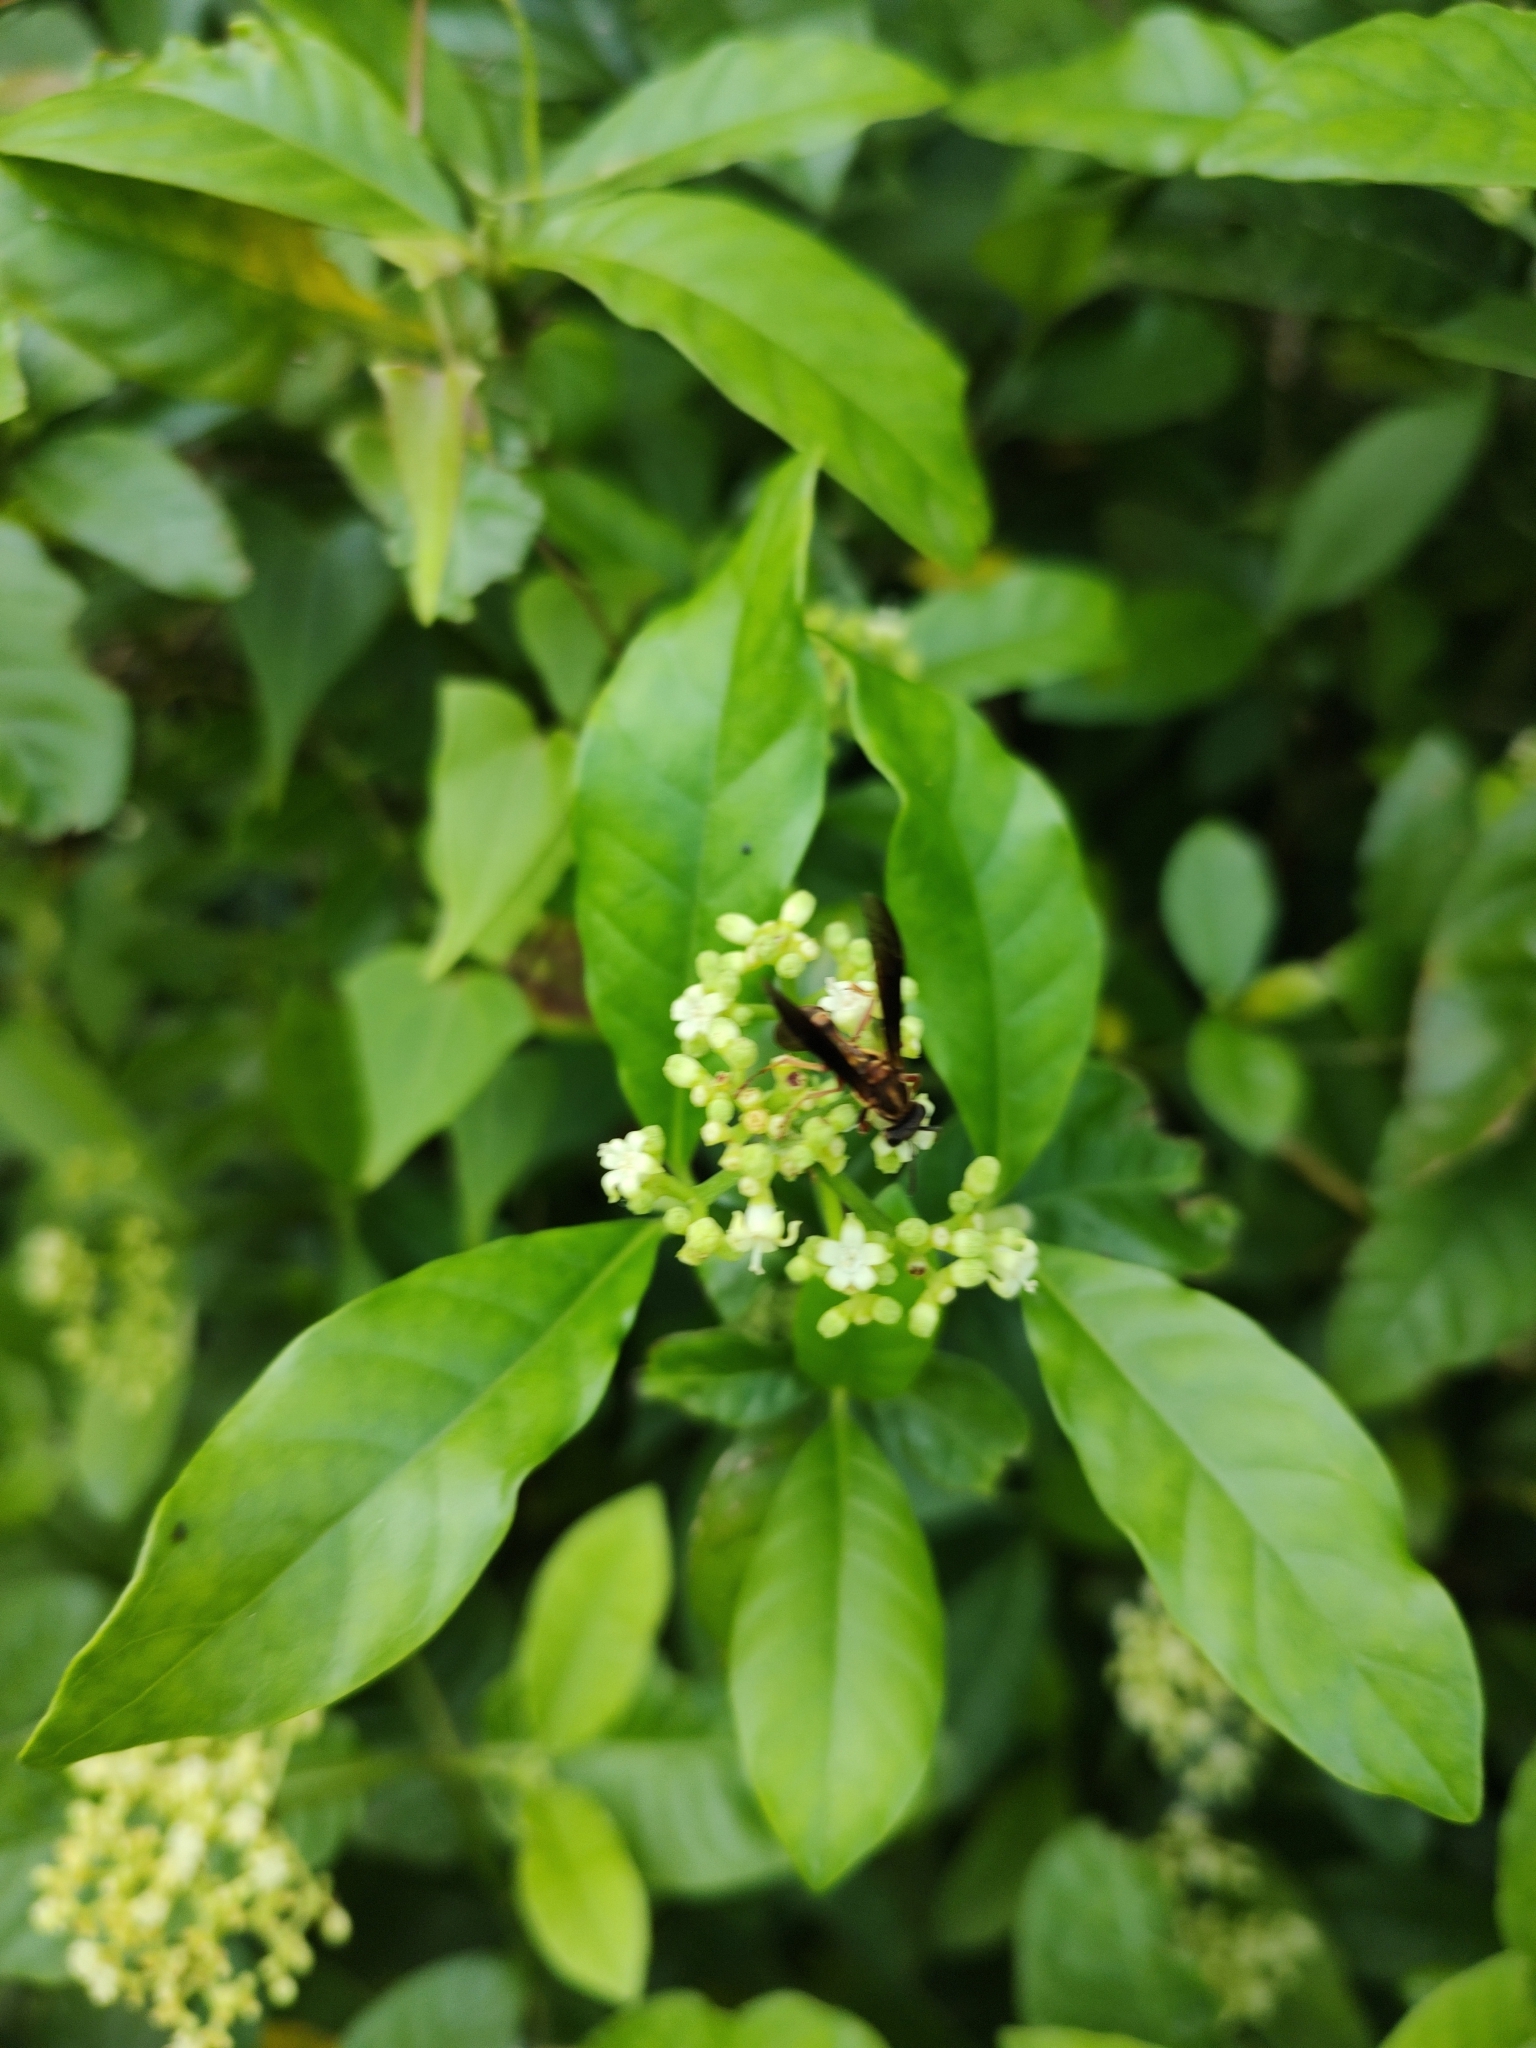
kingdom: Animalia
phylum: Arthropoda
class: Insecta
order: Hymenoptera
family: Eumenidae
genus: Polybia
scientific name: Polybia sericea
